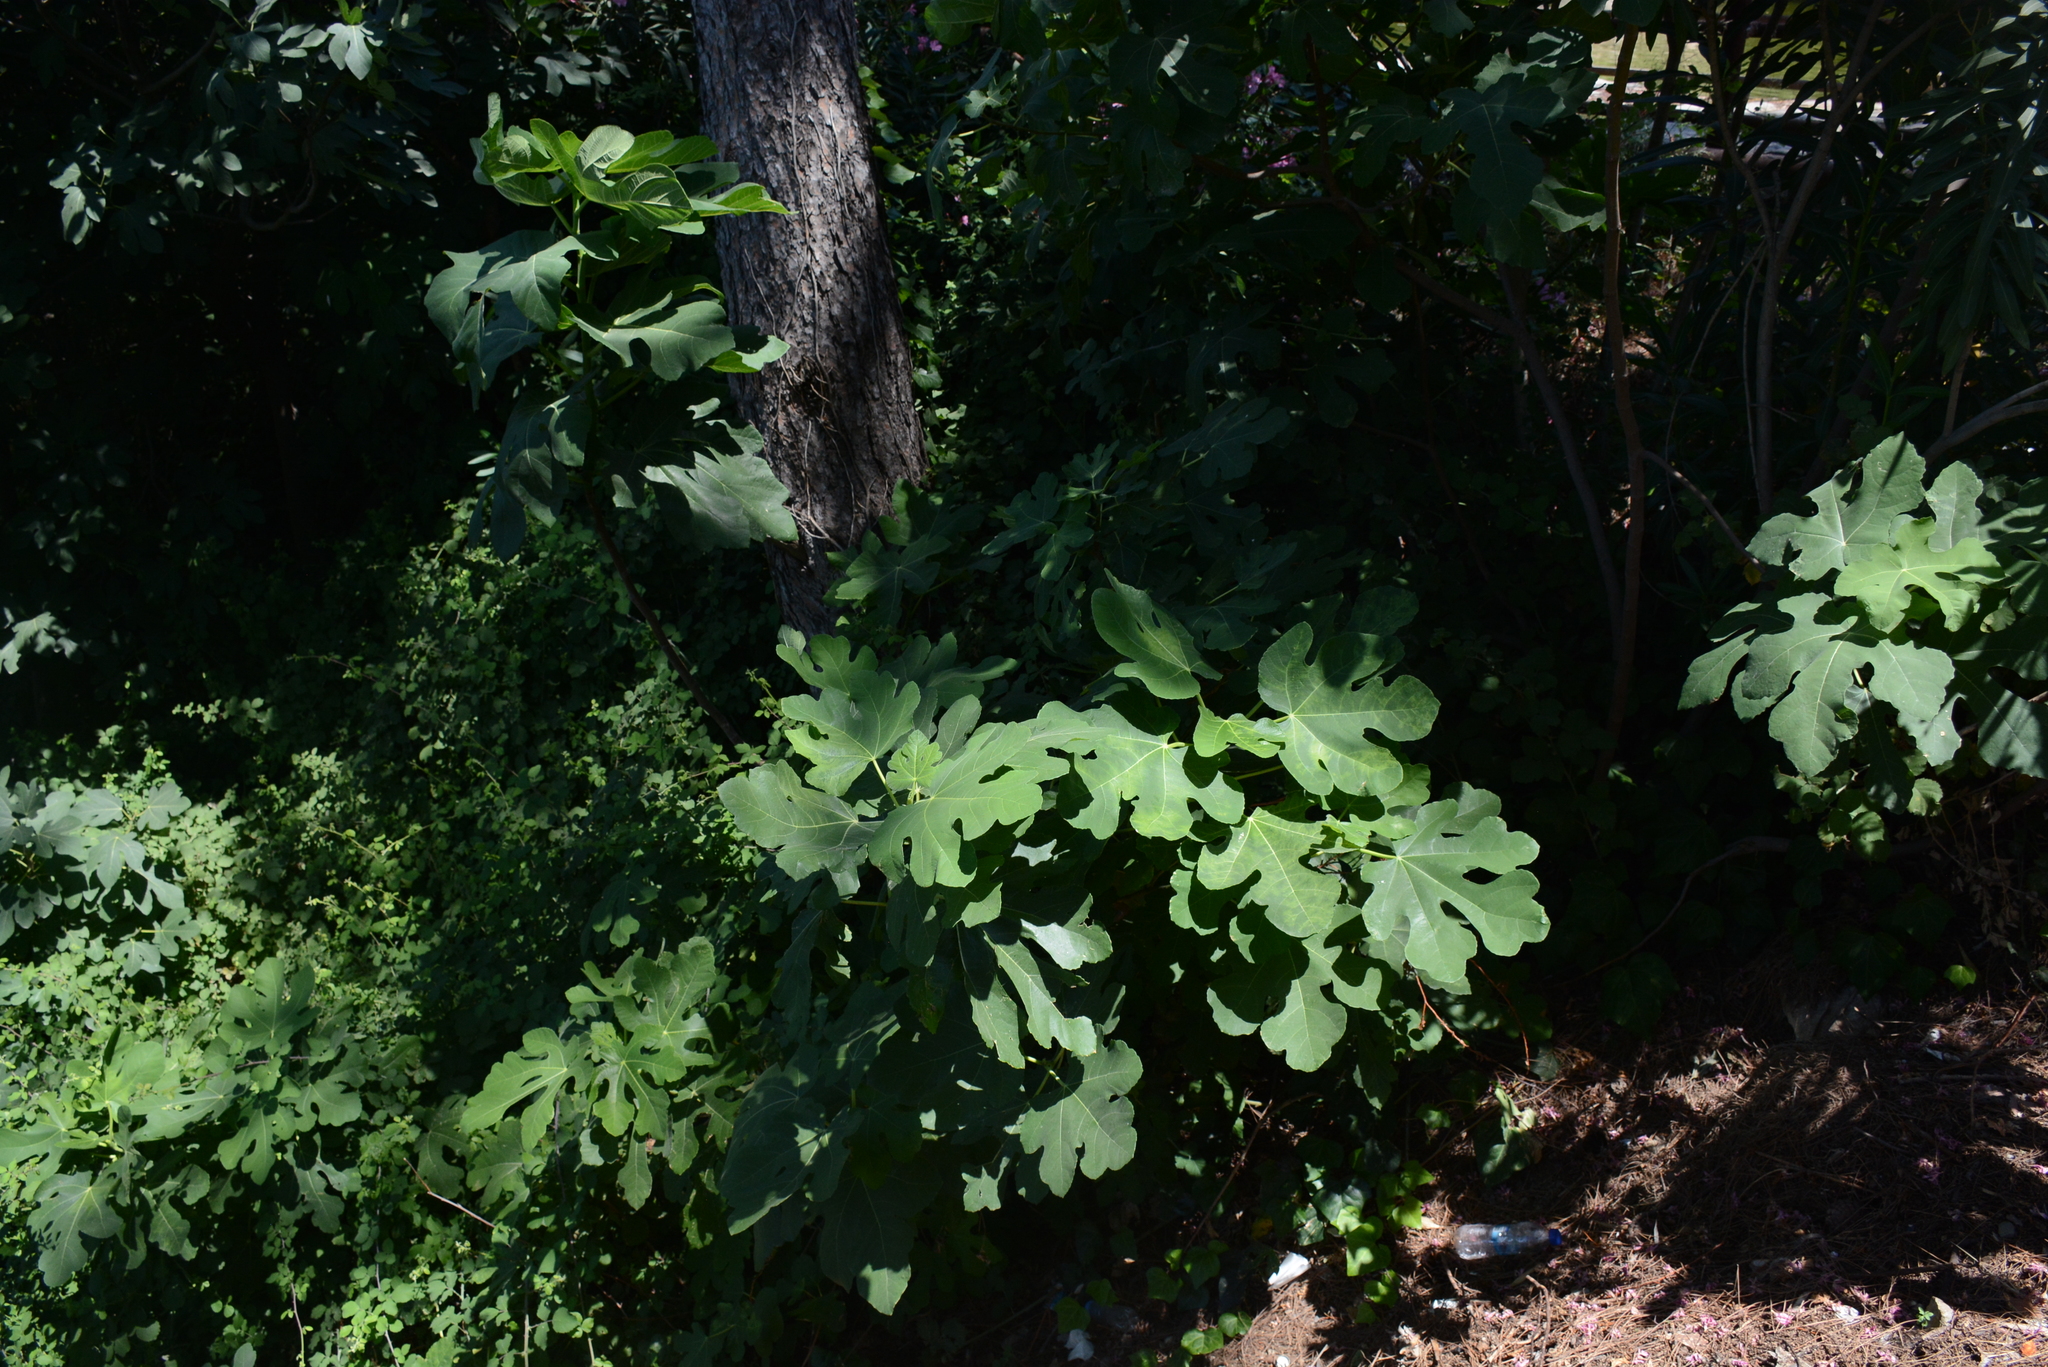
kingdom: Plantae
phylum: Tracheophyta
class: Magnoliopsida
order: Rosales
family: Moraceae
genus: Ficus
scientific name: Ficus carica
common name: Fig
